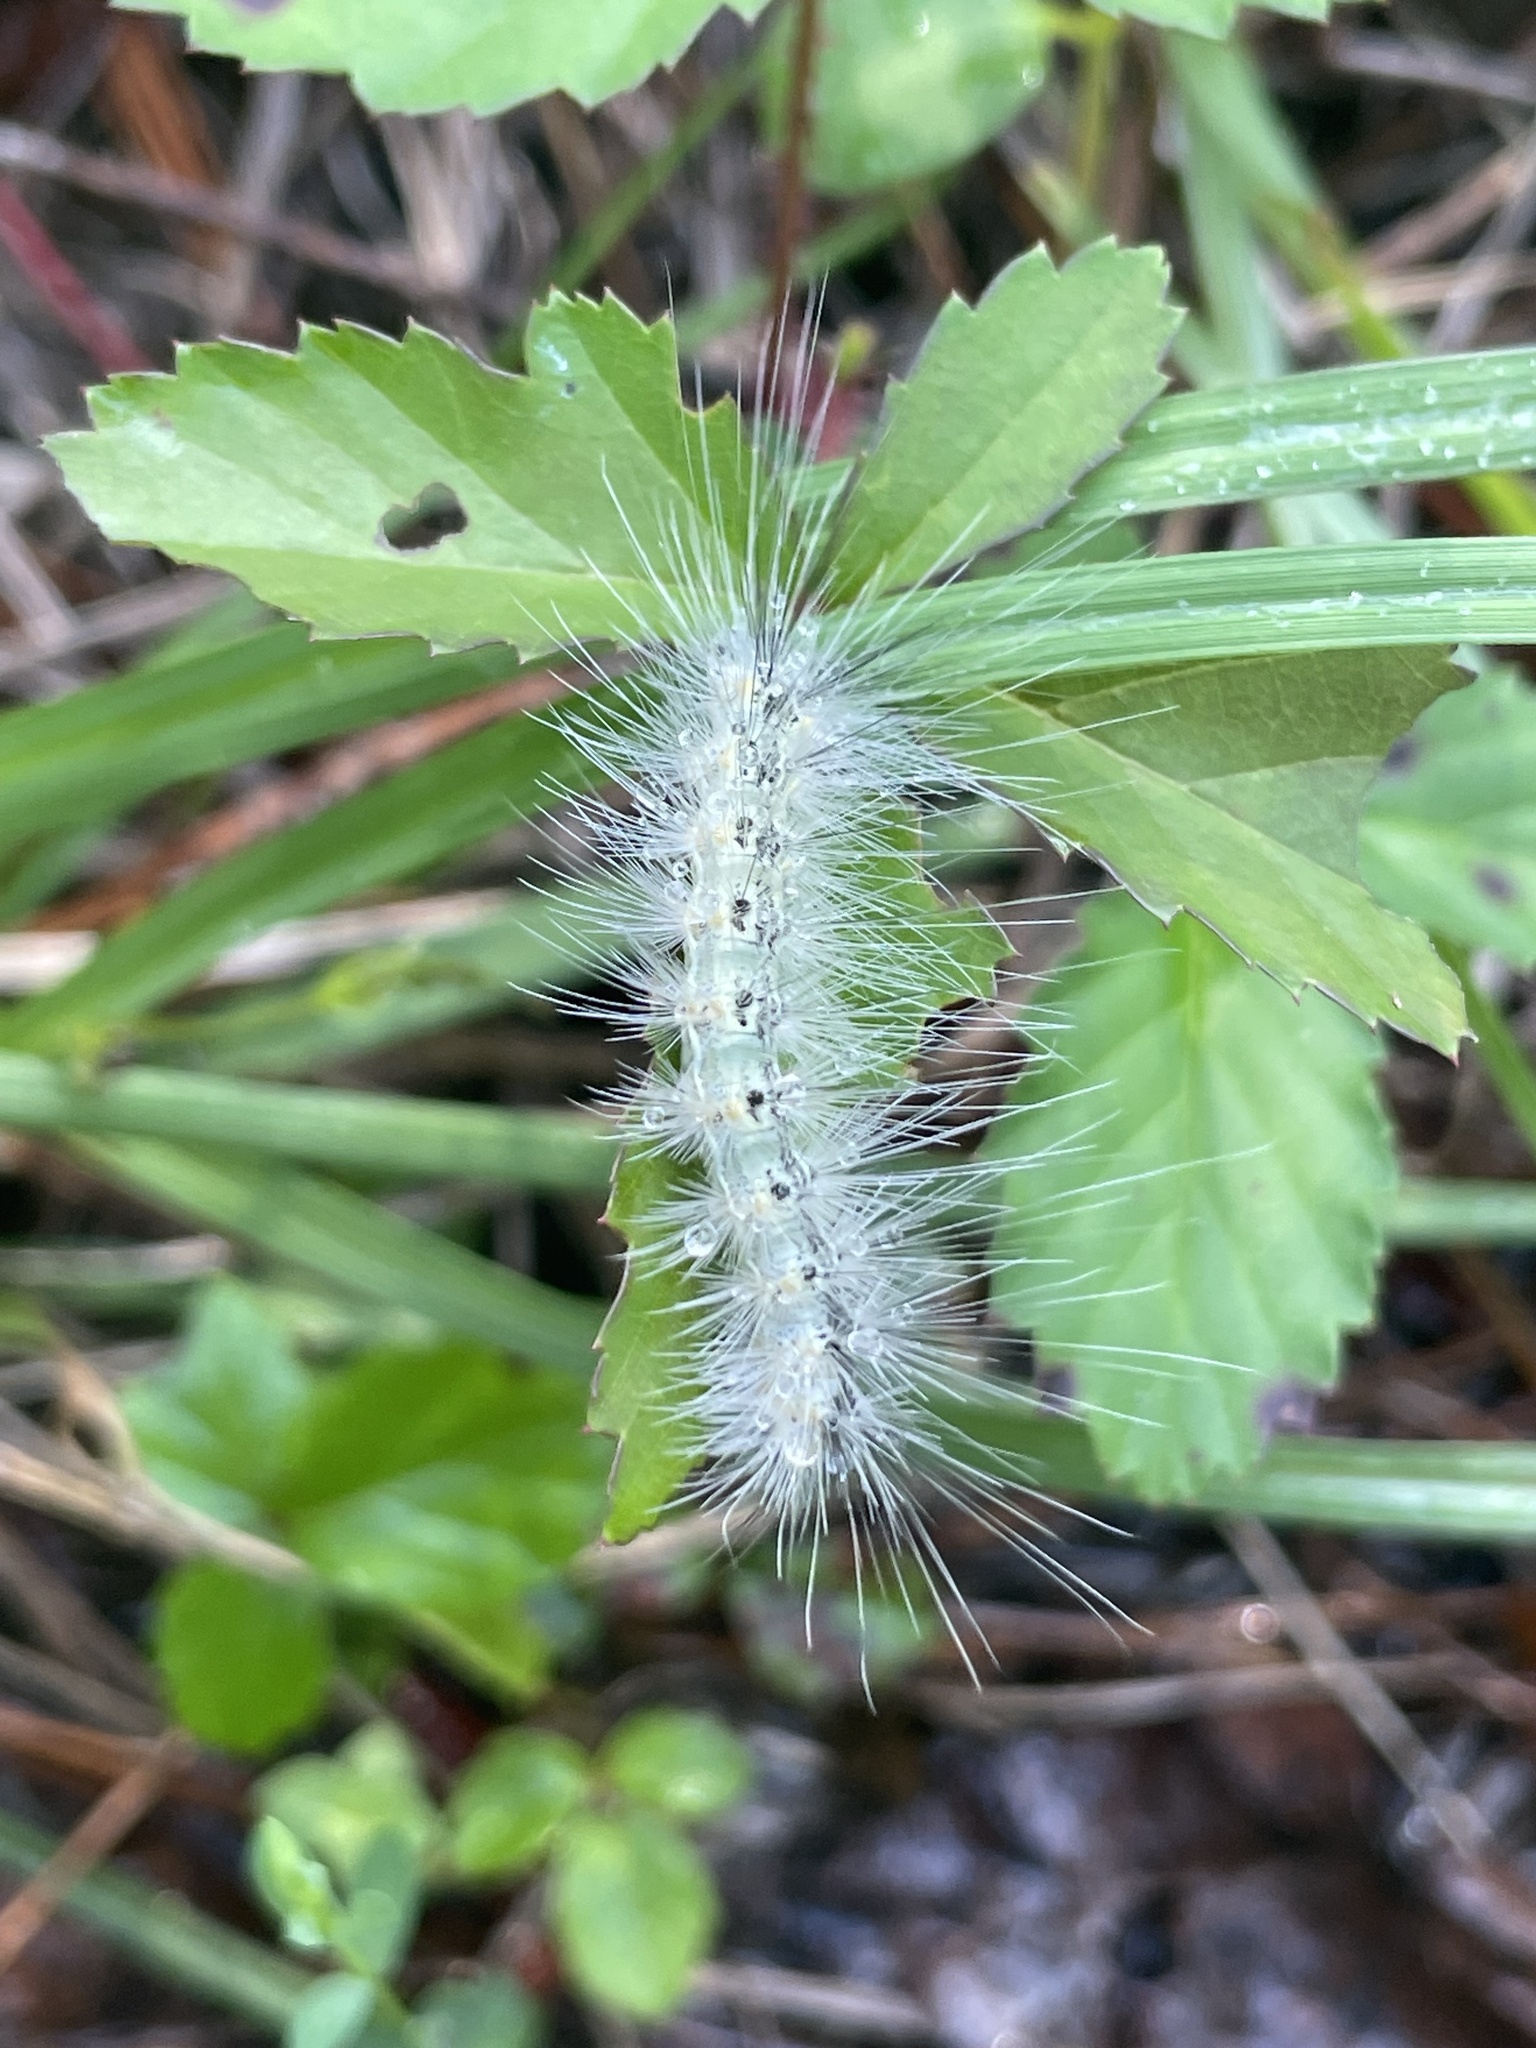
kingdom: Animalia
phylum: Arthropoda
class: Insecta
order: Lepidoptera
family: Erebidae
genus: Hyphantria
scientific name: Hyphantria cunea
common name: American white moth
